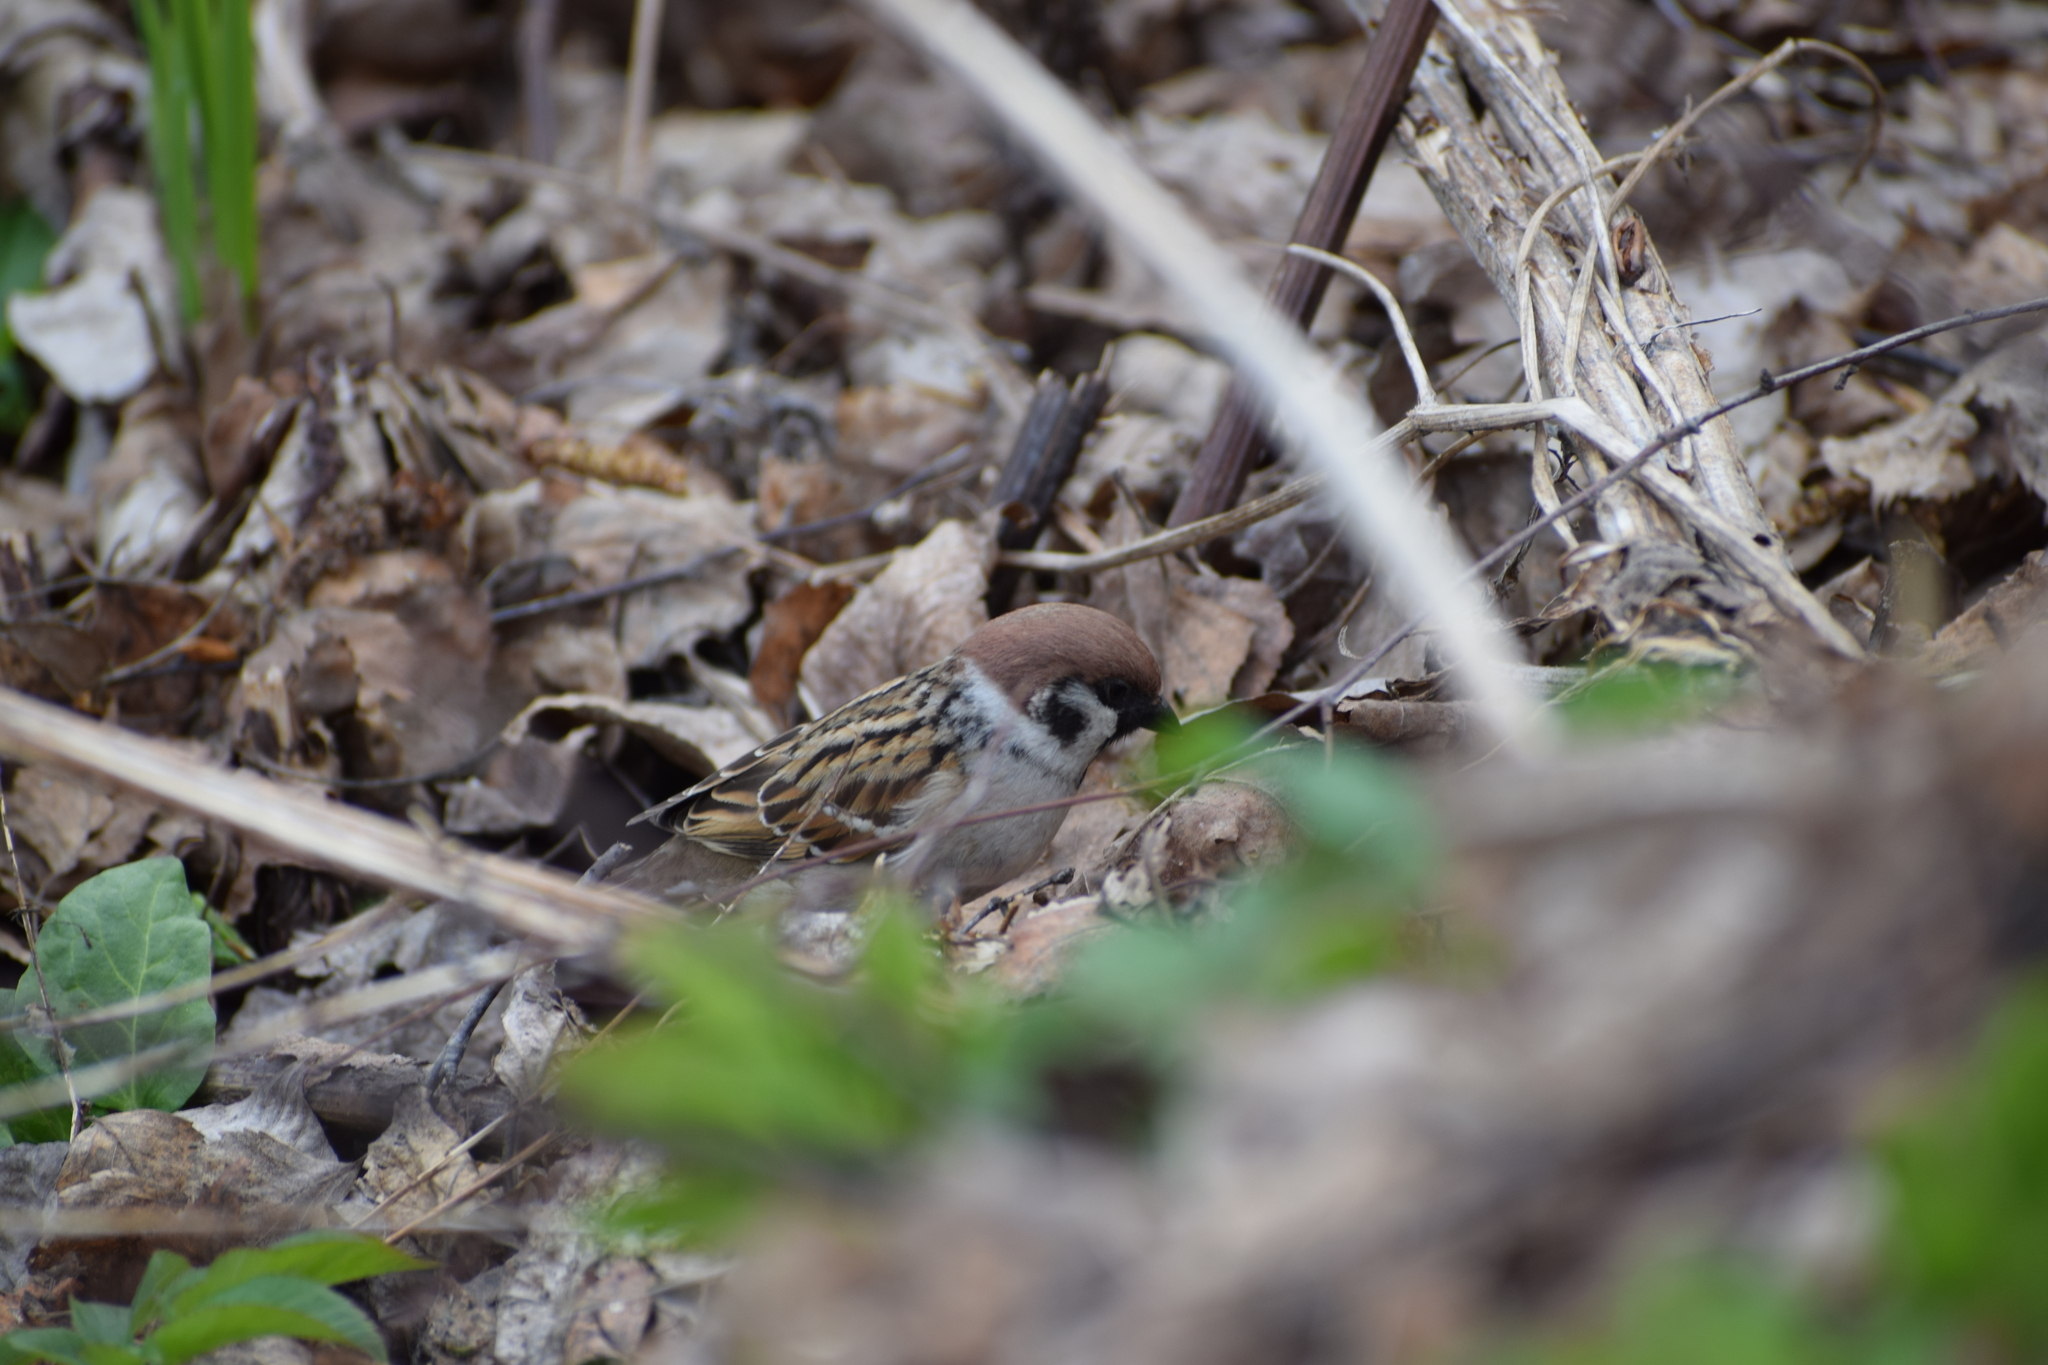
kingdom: Animalia
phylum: Chordata
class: Aves
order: Passeriformes
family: Passeridae
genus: Passer
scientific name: Passer montanus
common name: Eurasian tree sparrow
